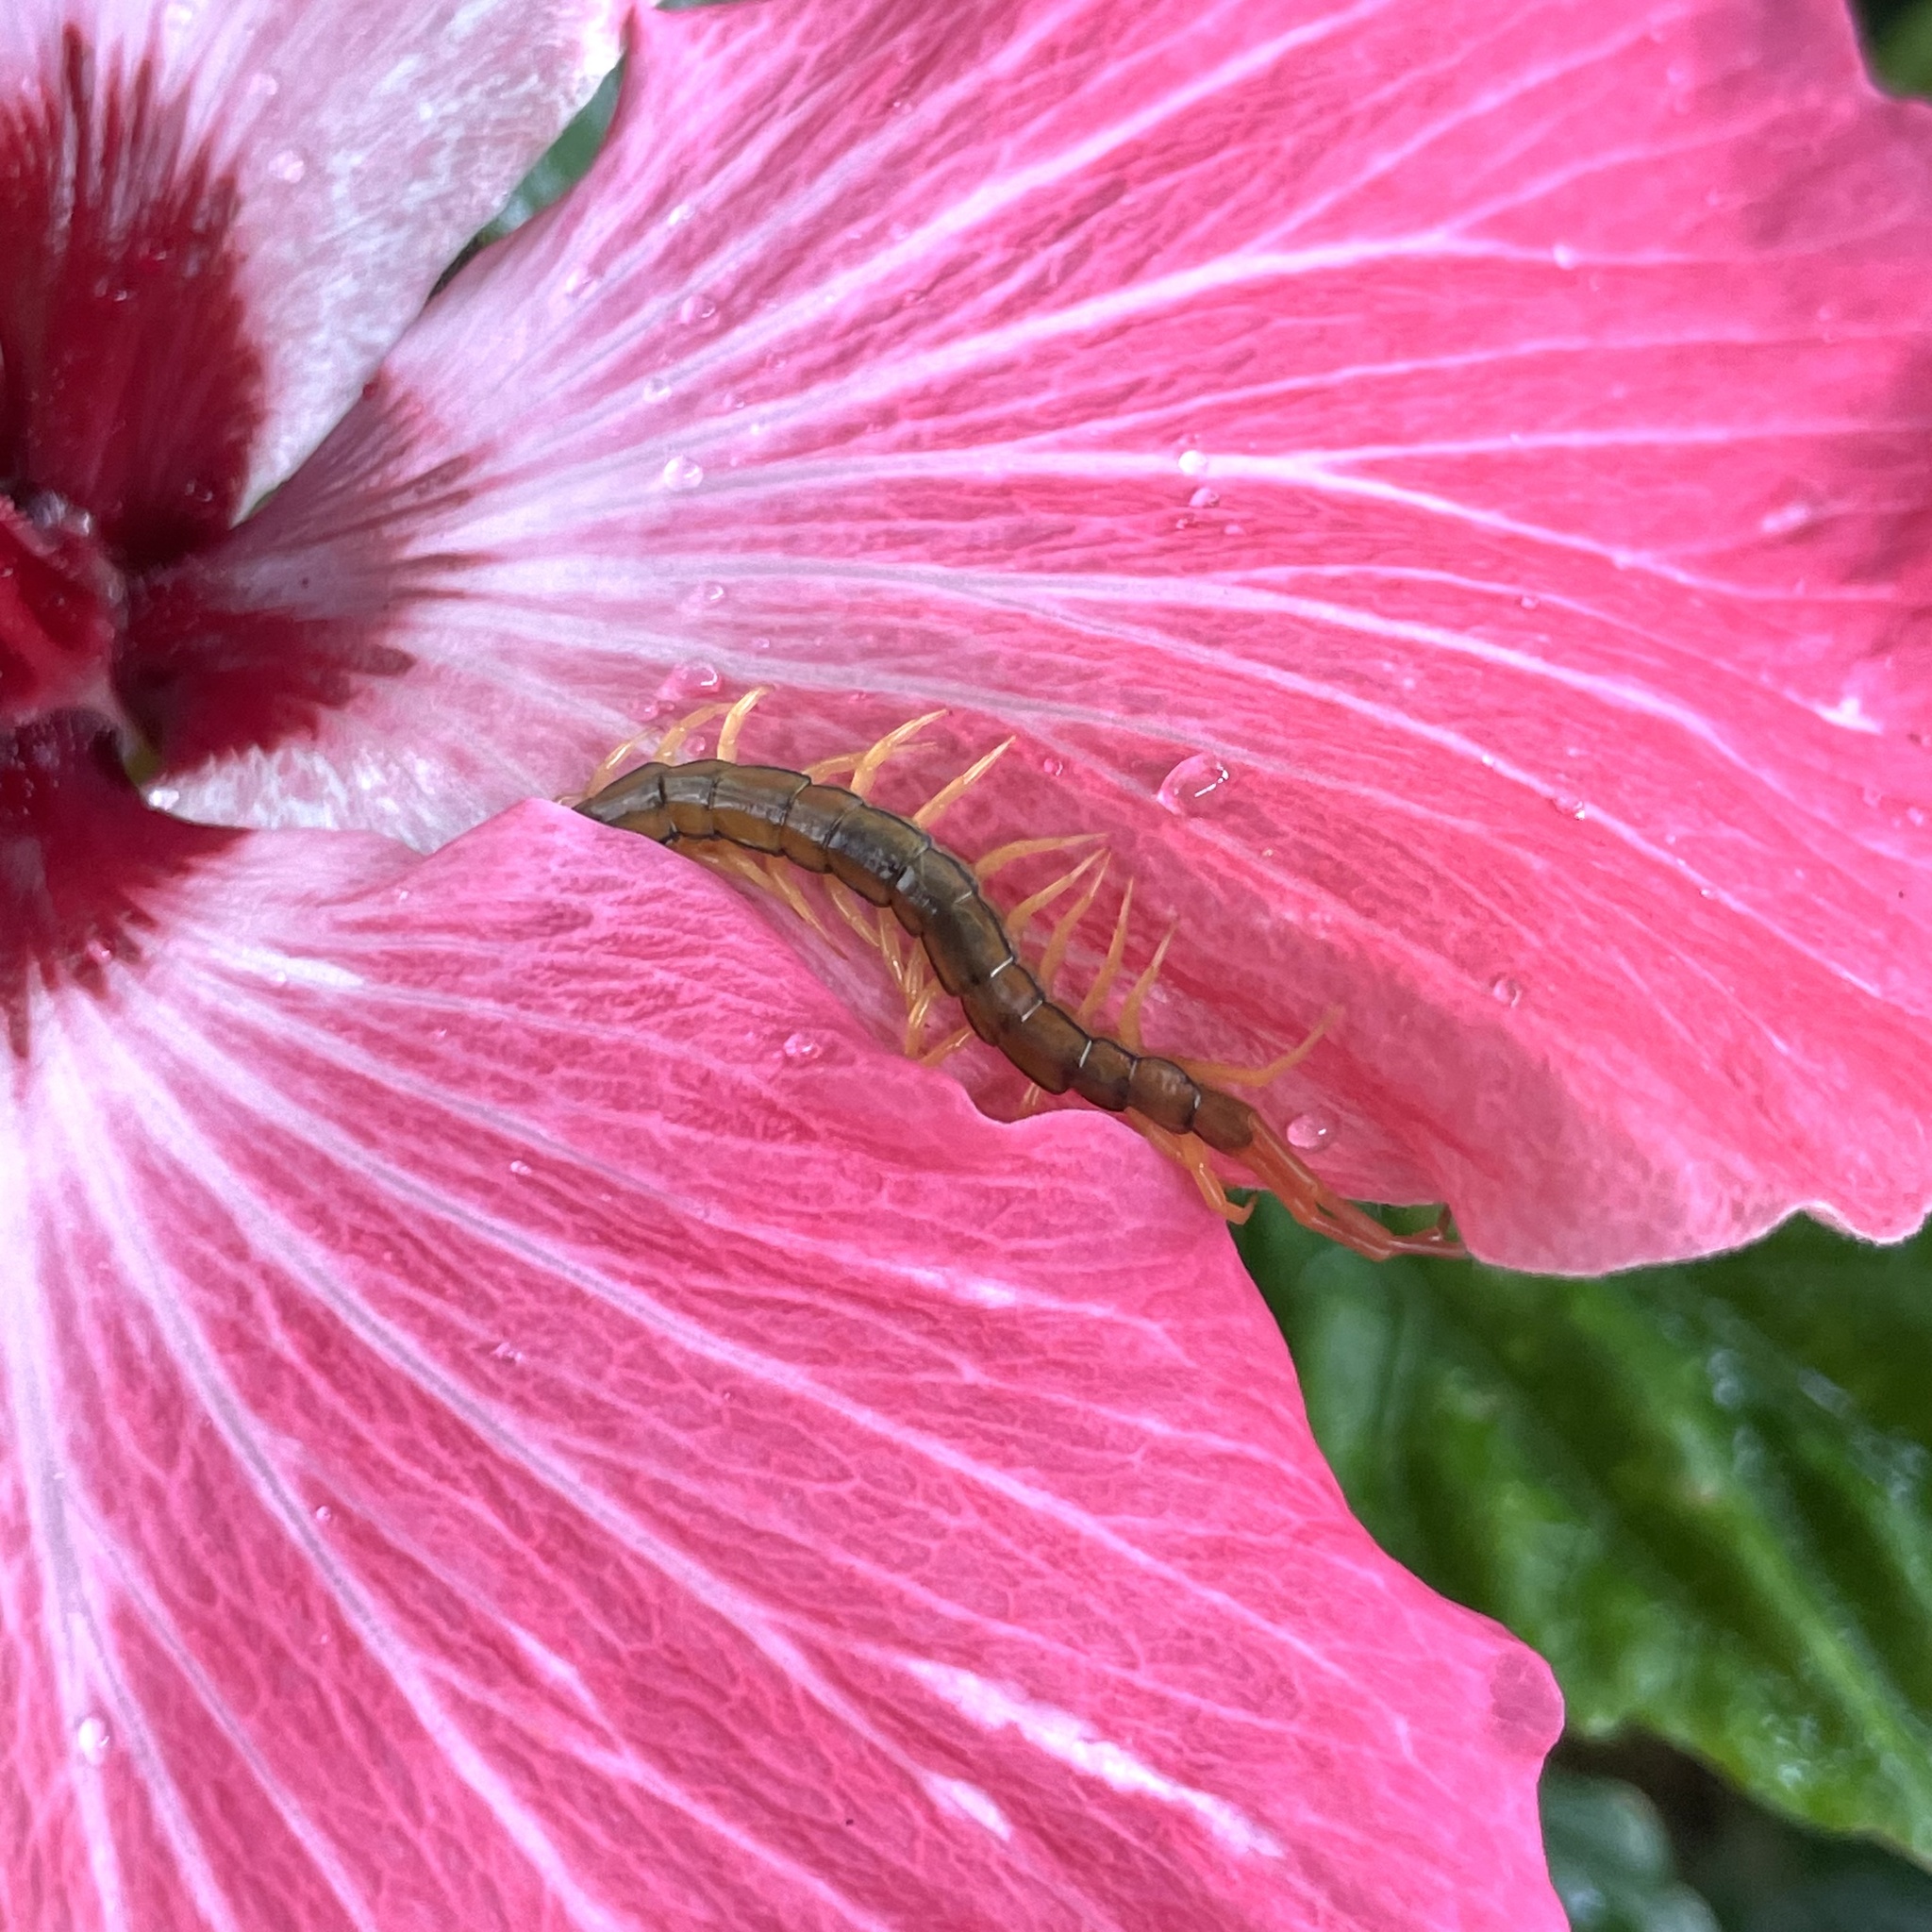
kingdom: Animalia
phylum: Arthropoda
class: Chilopoda
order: Scolopendromorpha
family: Scolopendridae
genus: Scolopendra
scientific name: Scolopendra mutilans
